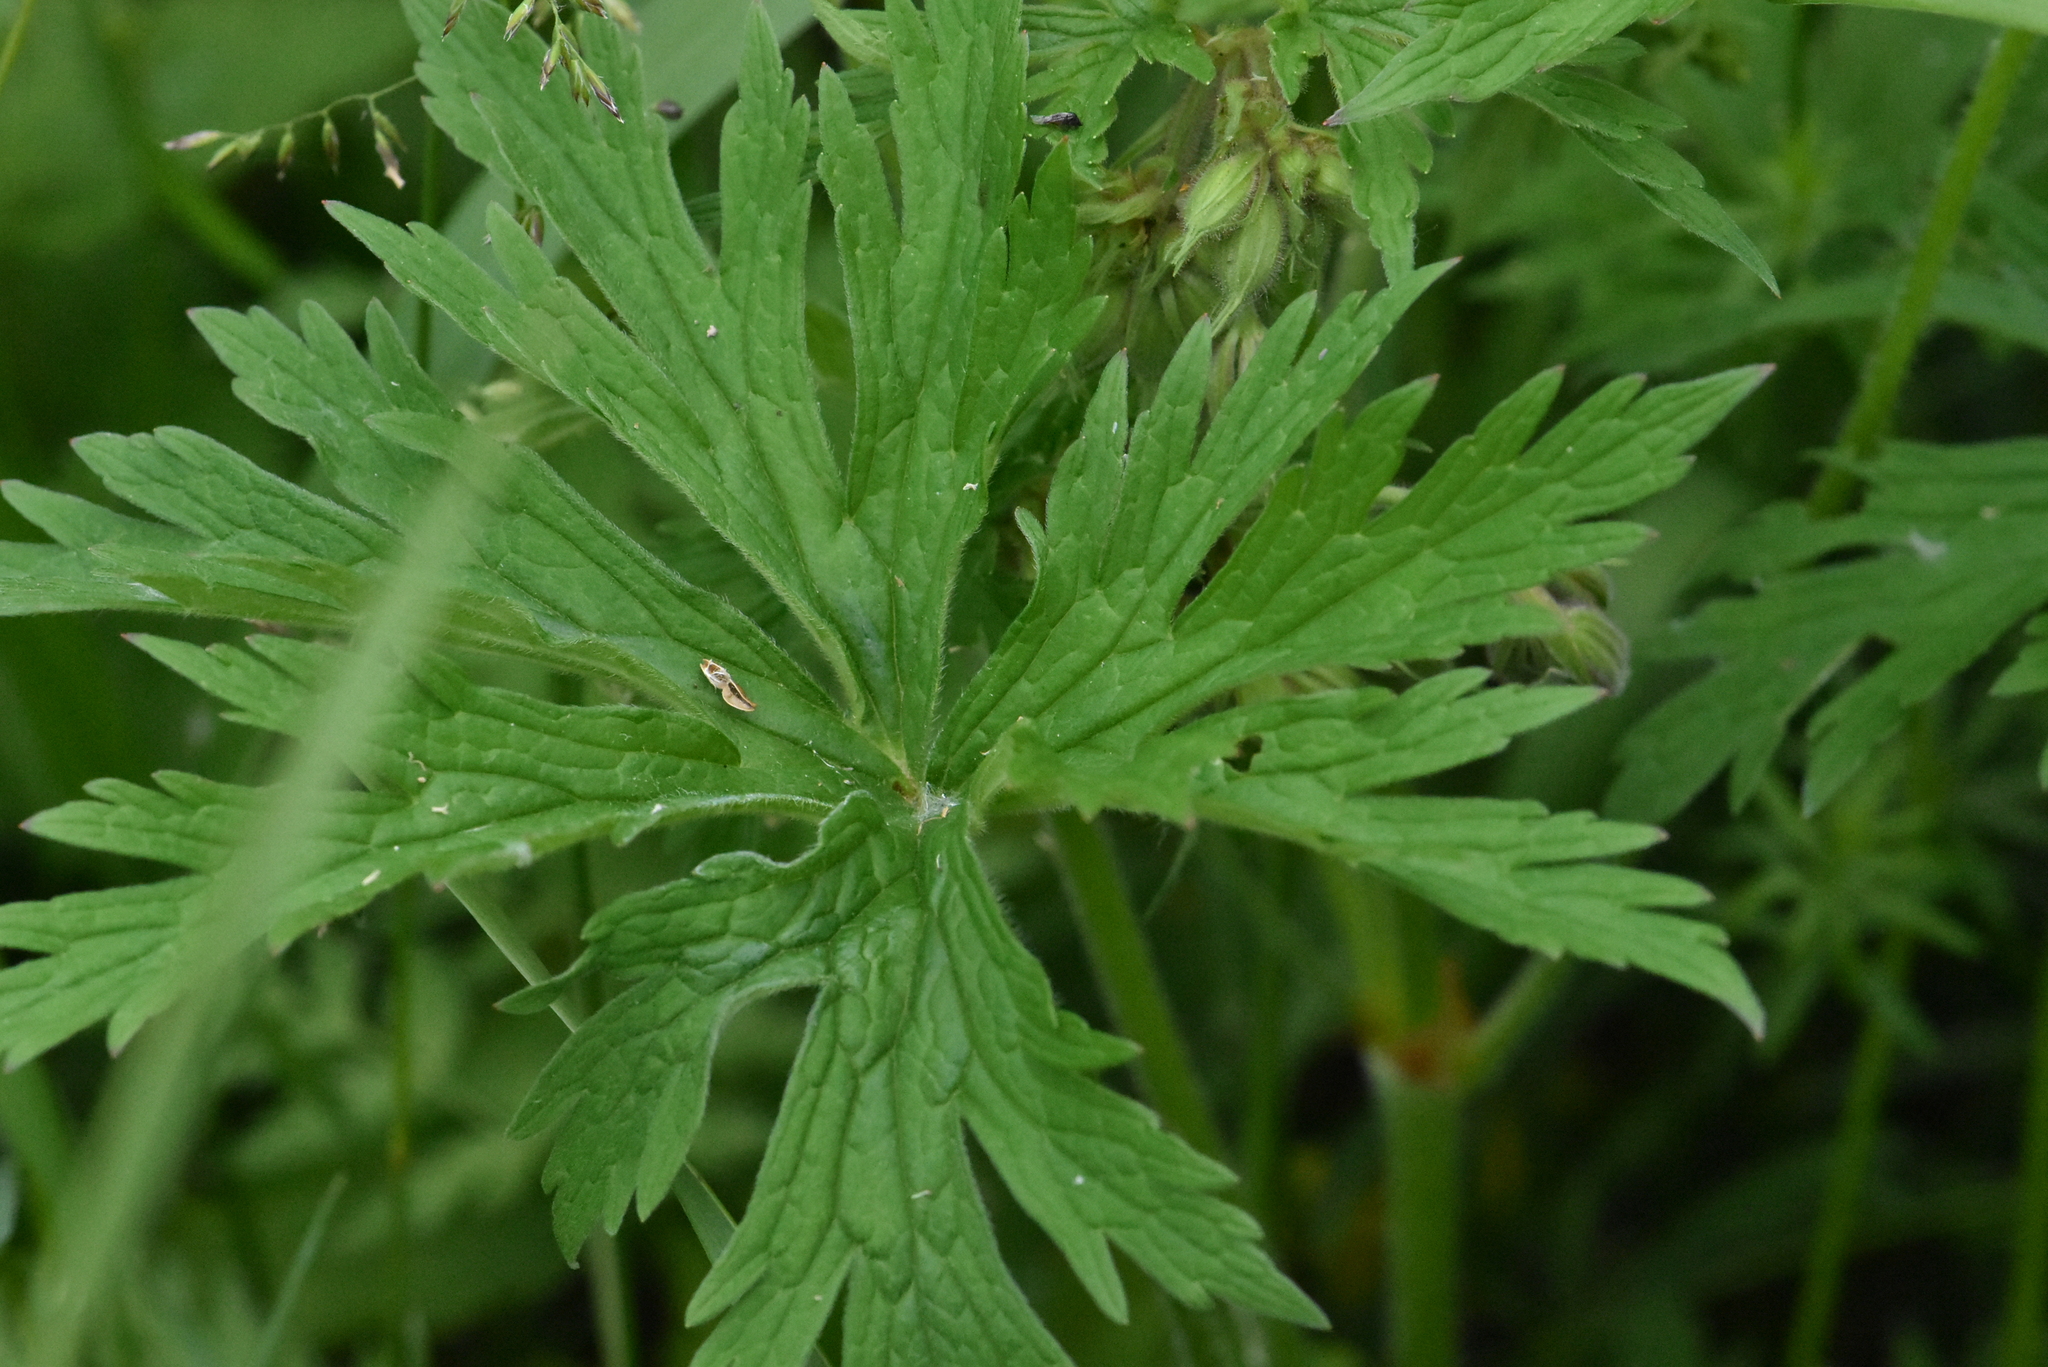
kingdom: Plantae
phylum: Tracheophyta
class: Magnoliopsida
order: Geraniales
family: Geraniaceae
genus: Geranium
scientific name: Geranium pratense
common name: Meadow crane's-bill
